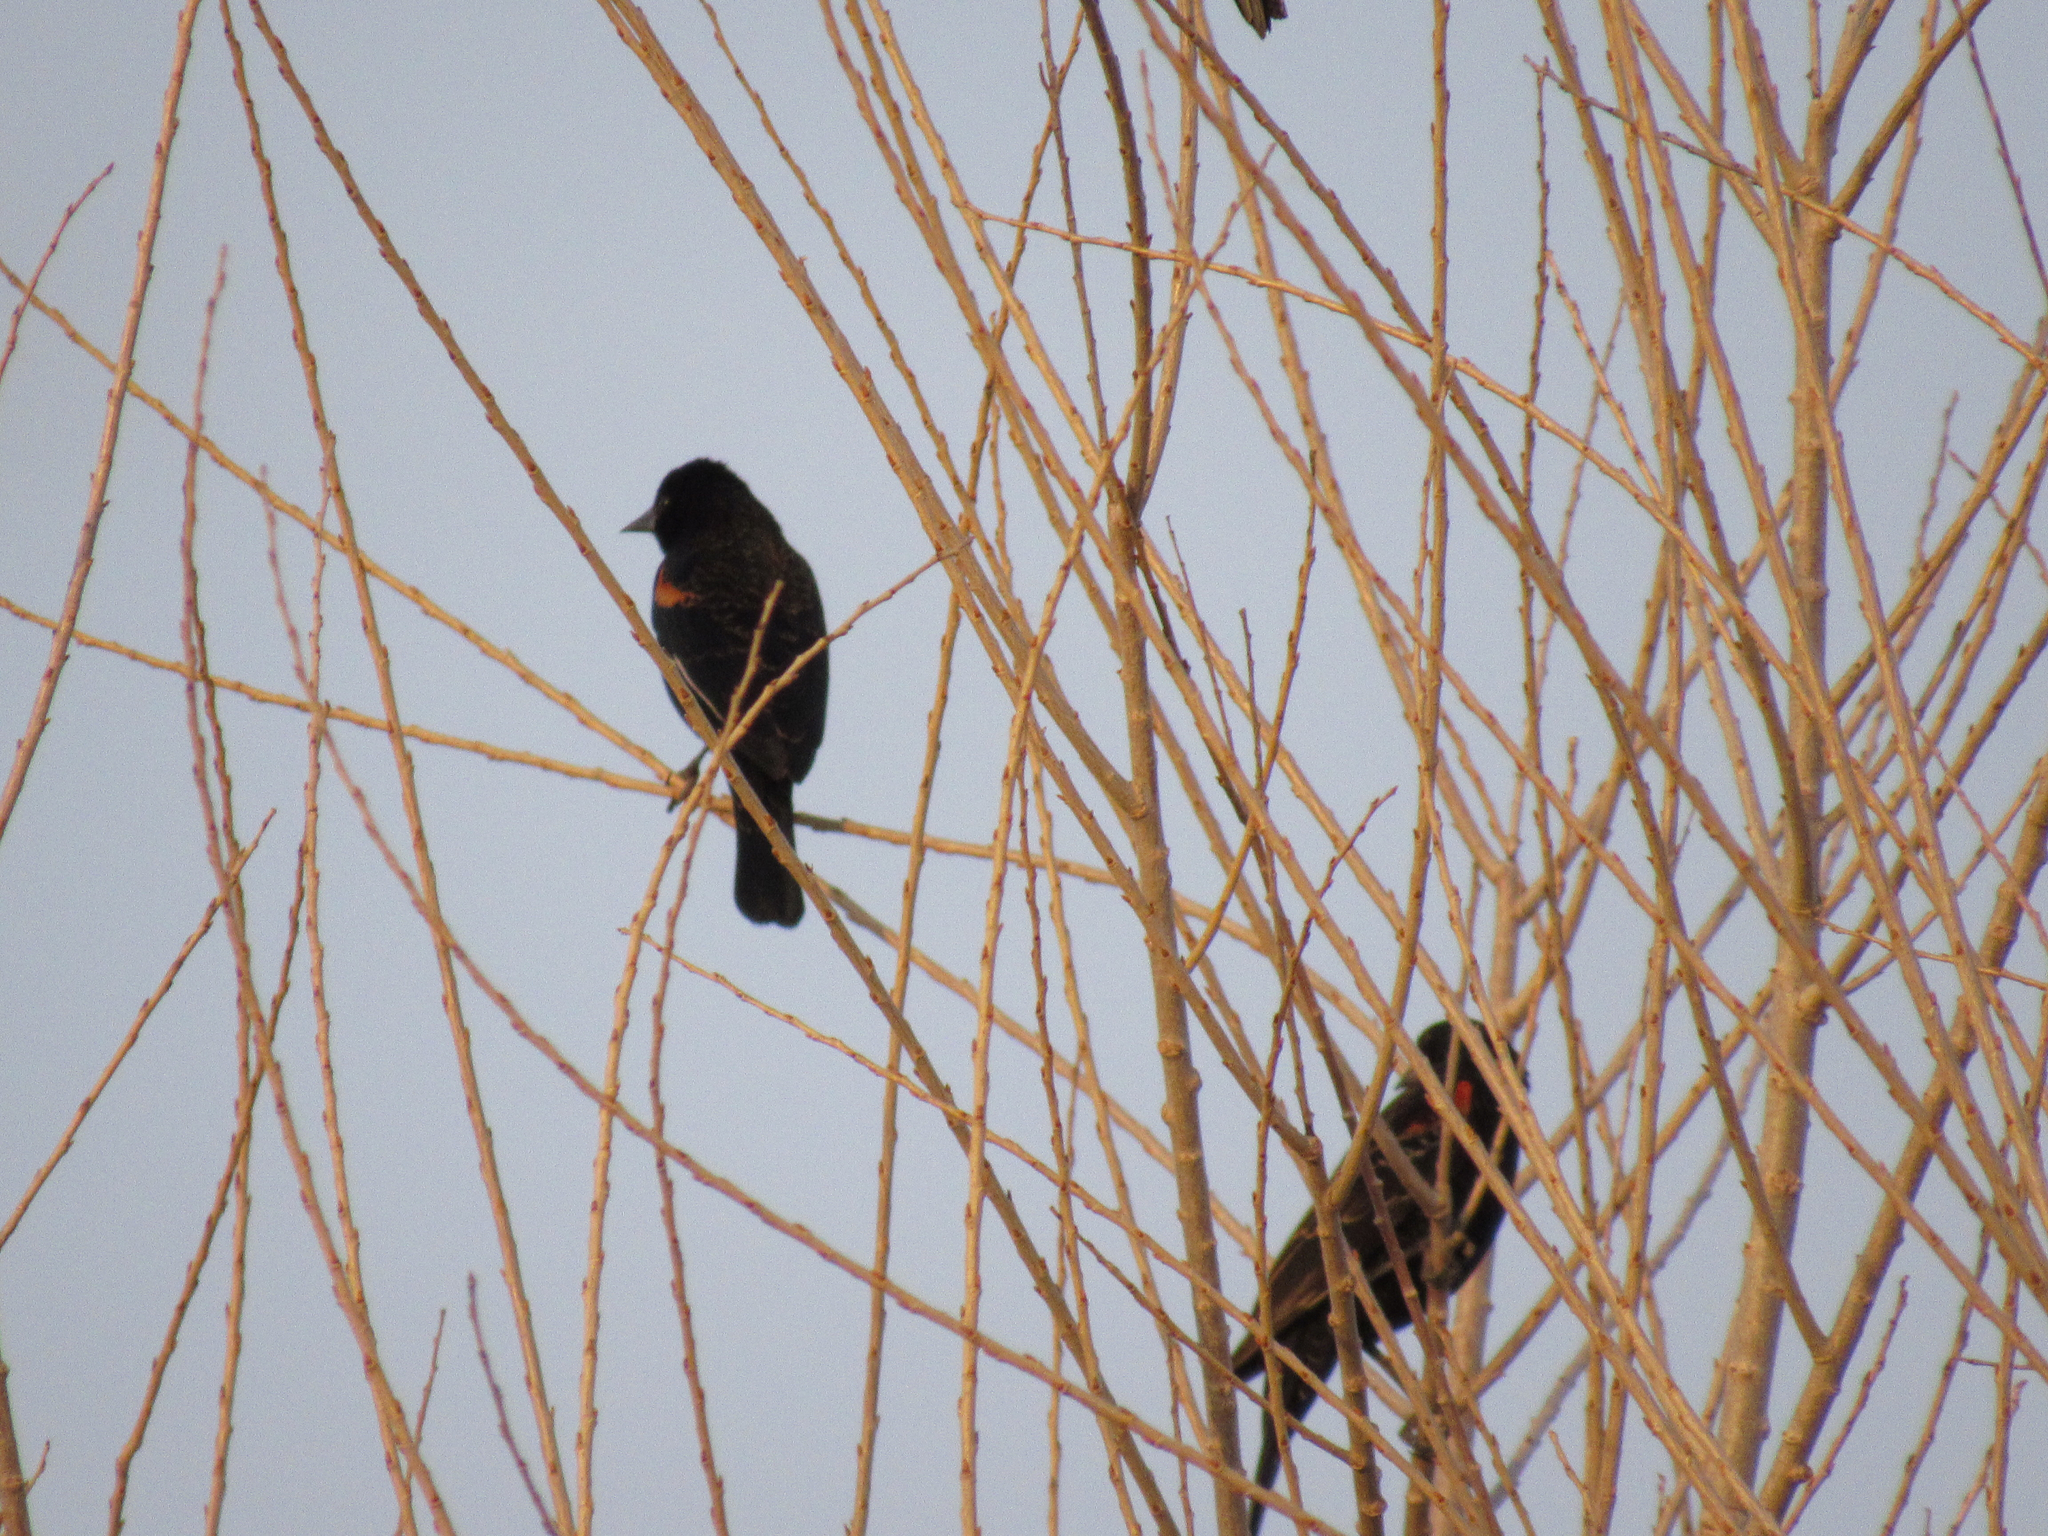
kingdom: Animalia
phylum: Chordata
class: Aves
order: Passeriformes
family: Icteridae
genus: Agelaius
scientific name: Agelaius phoeniceus
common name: Red-winged blackbird
